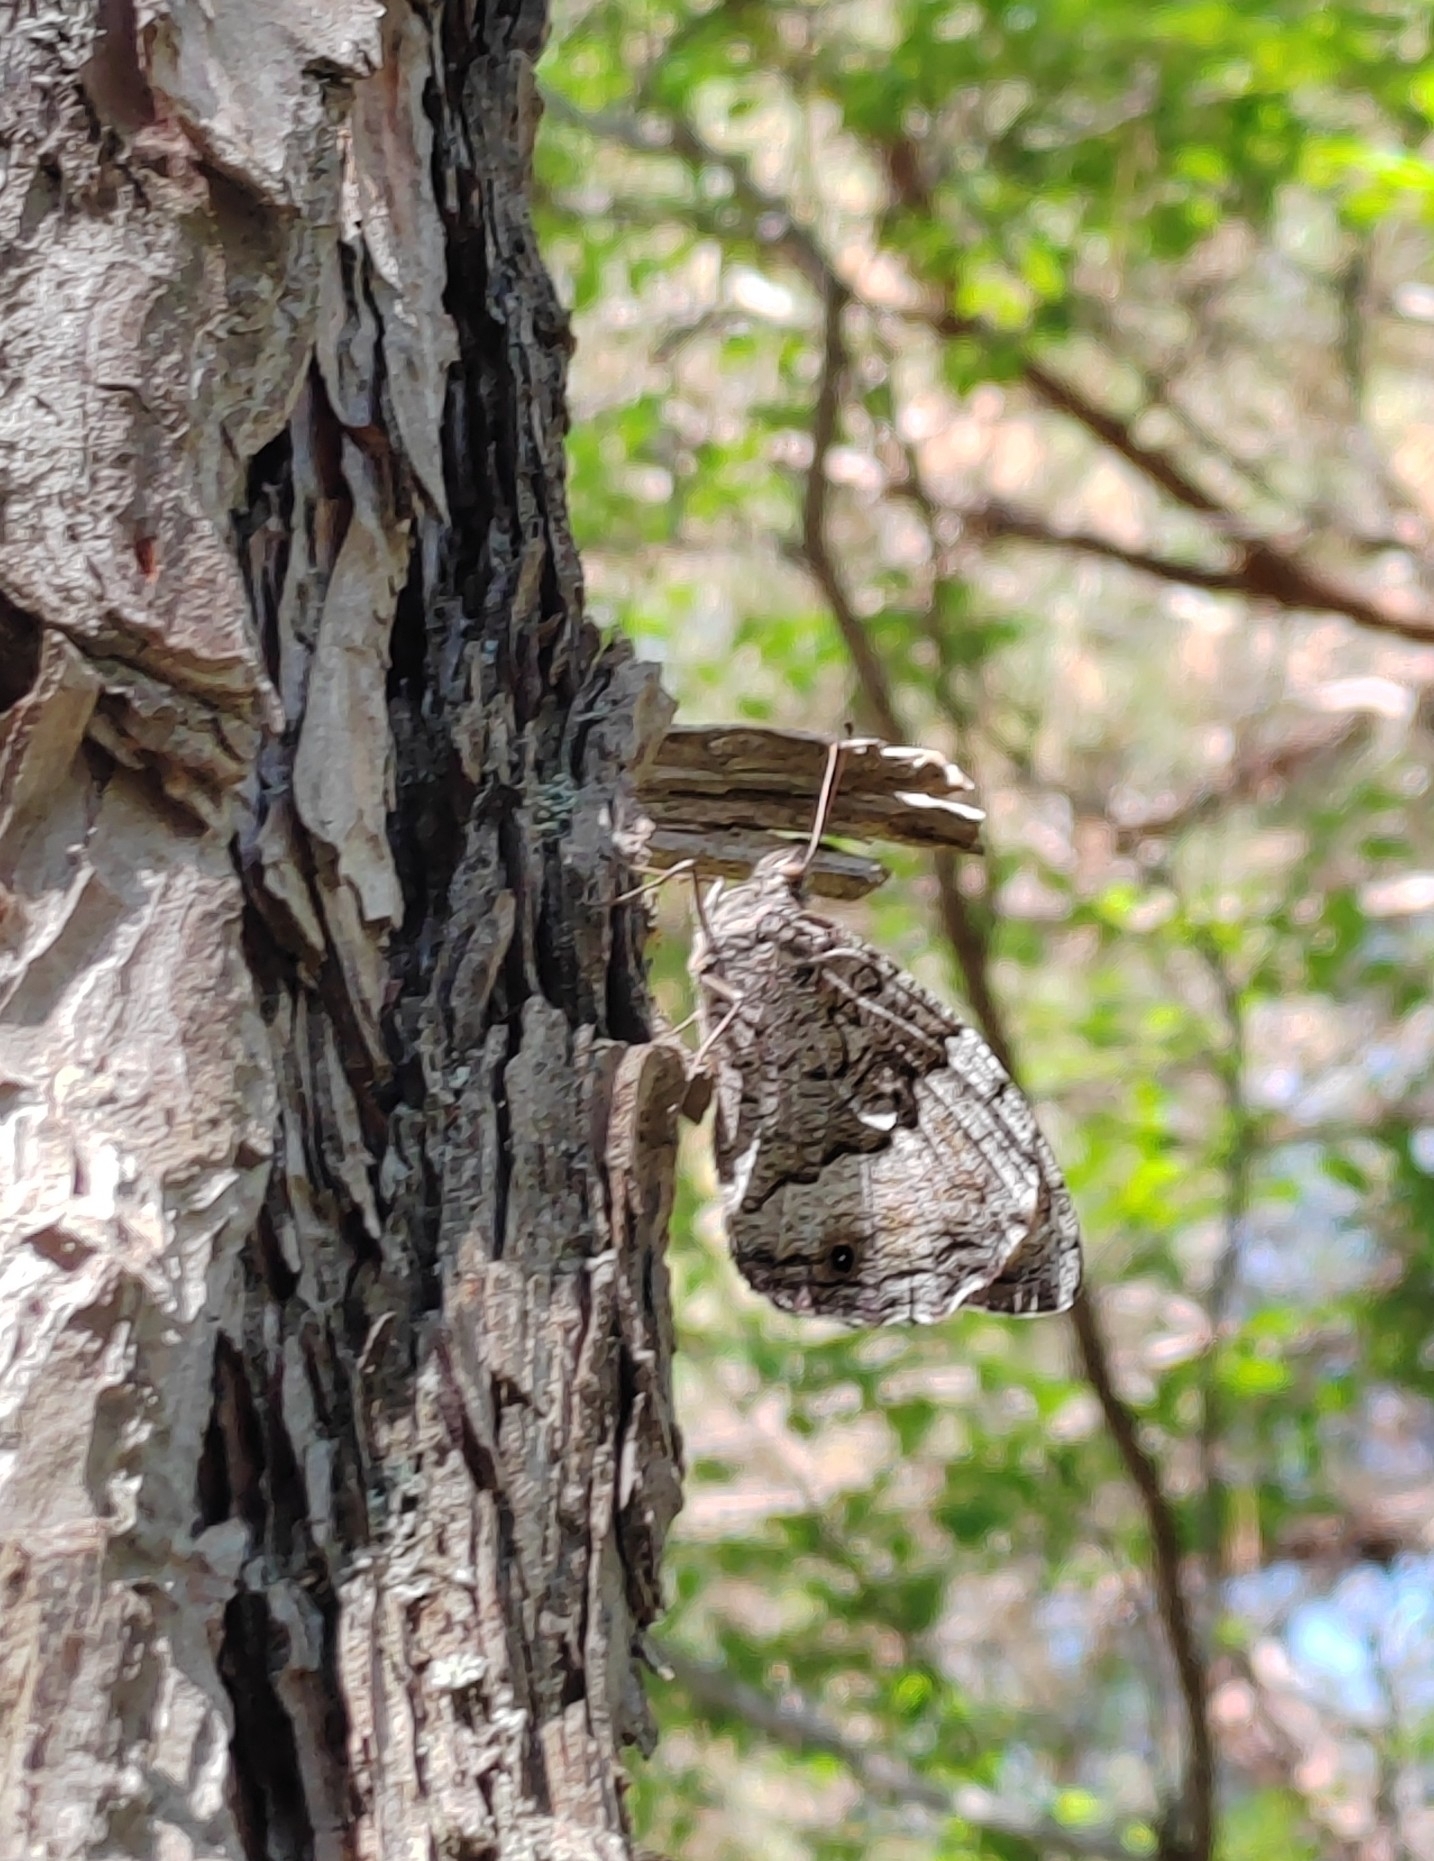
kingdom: Animalia
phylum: Arthropoda
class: Insecta
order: Lepidoptera
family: Nymphalidae
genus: Hipparchia
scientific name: Hipparchia fagi
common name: Woodland grayling
